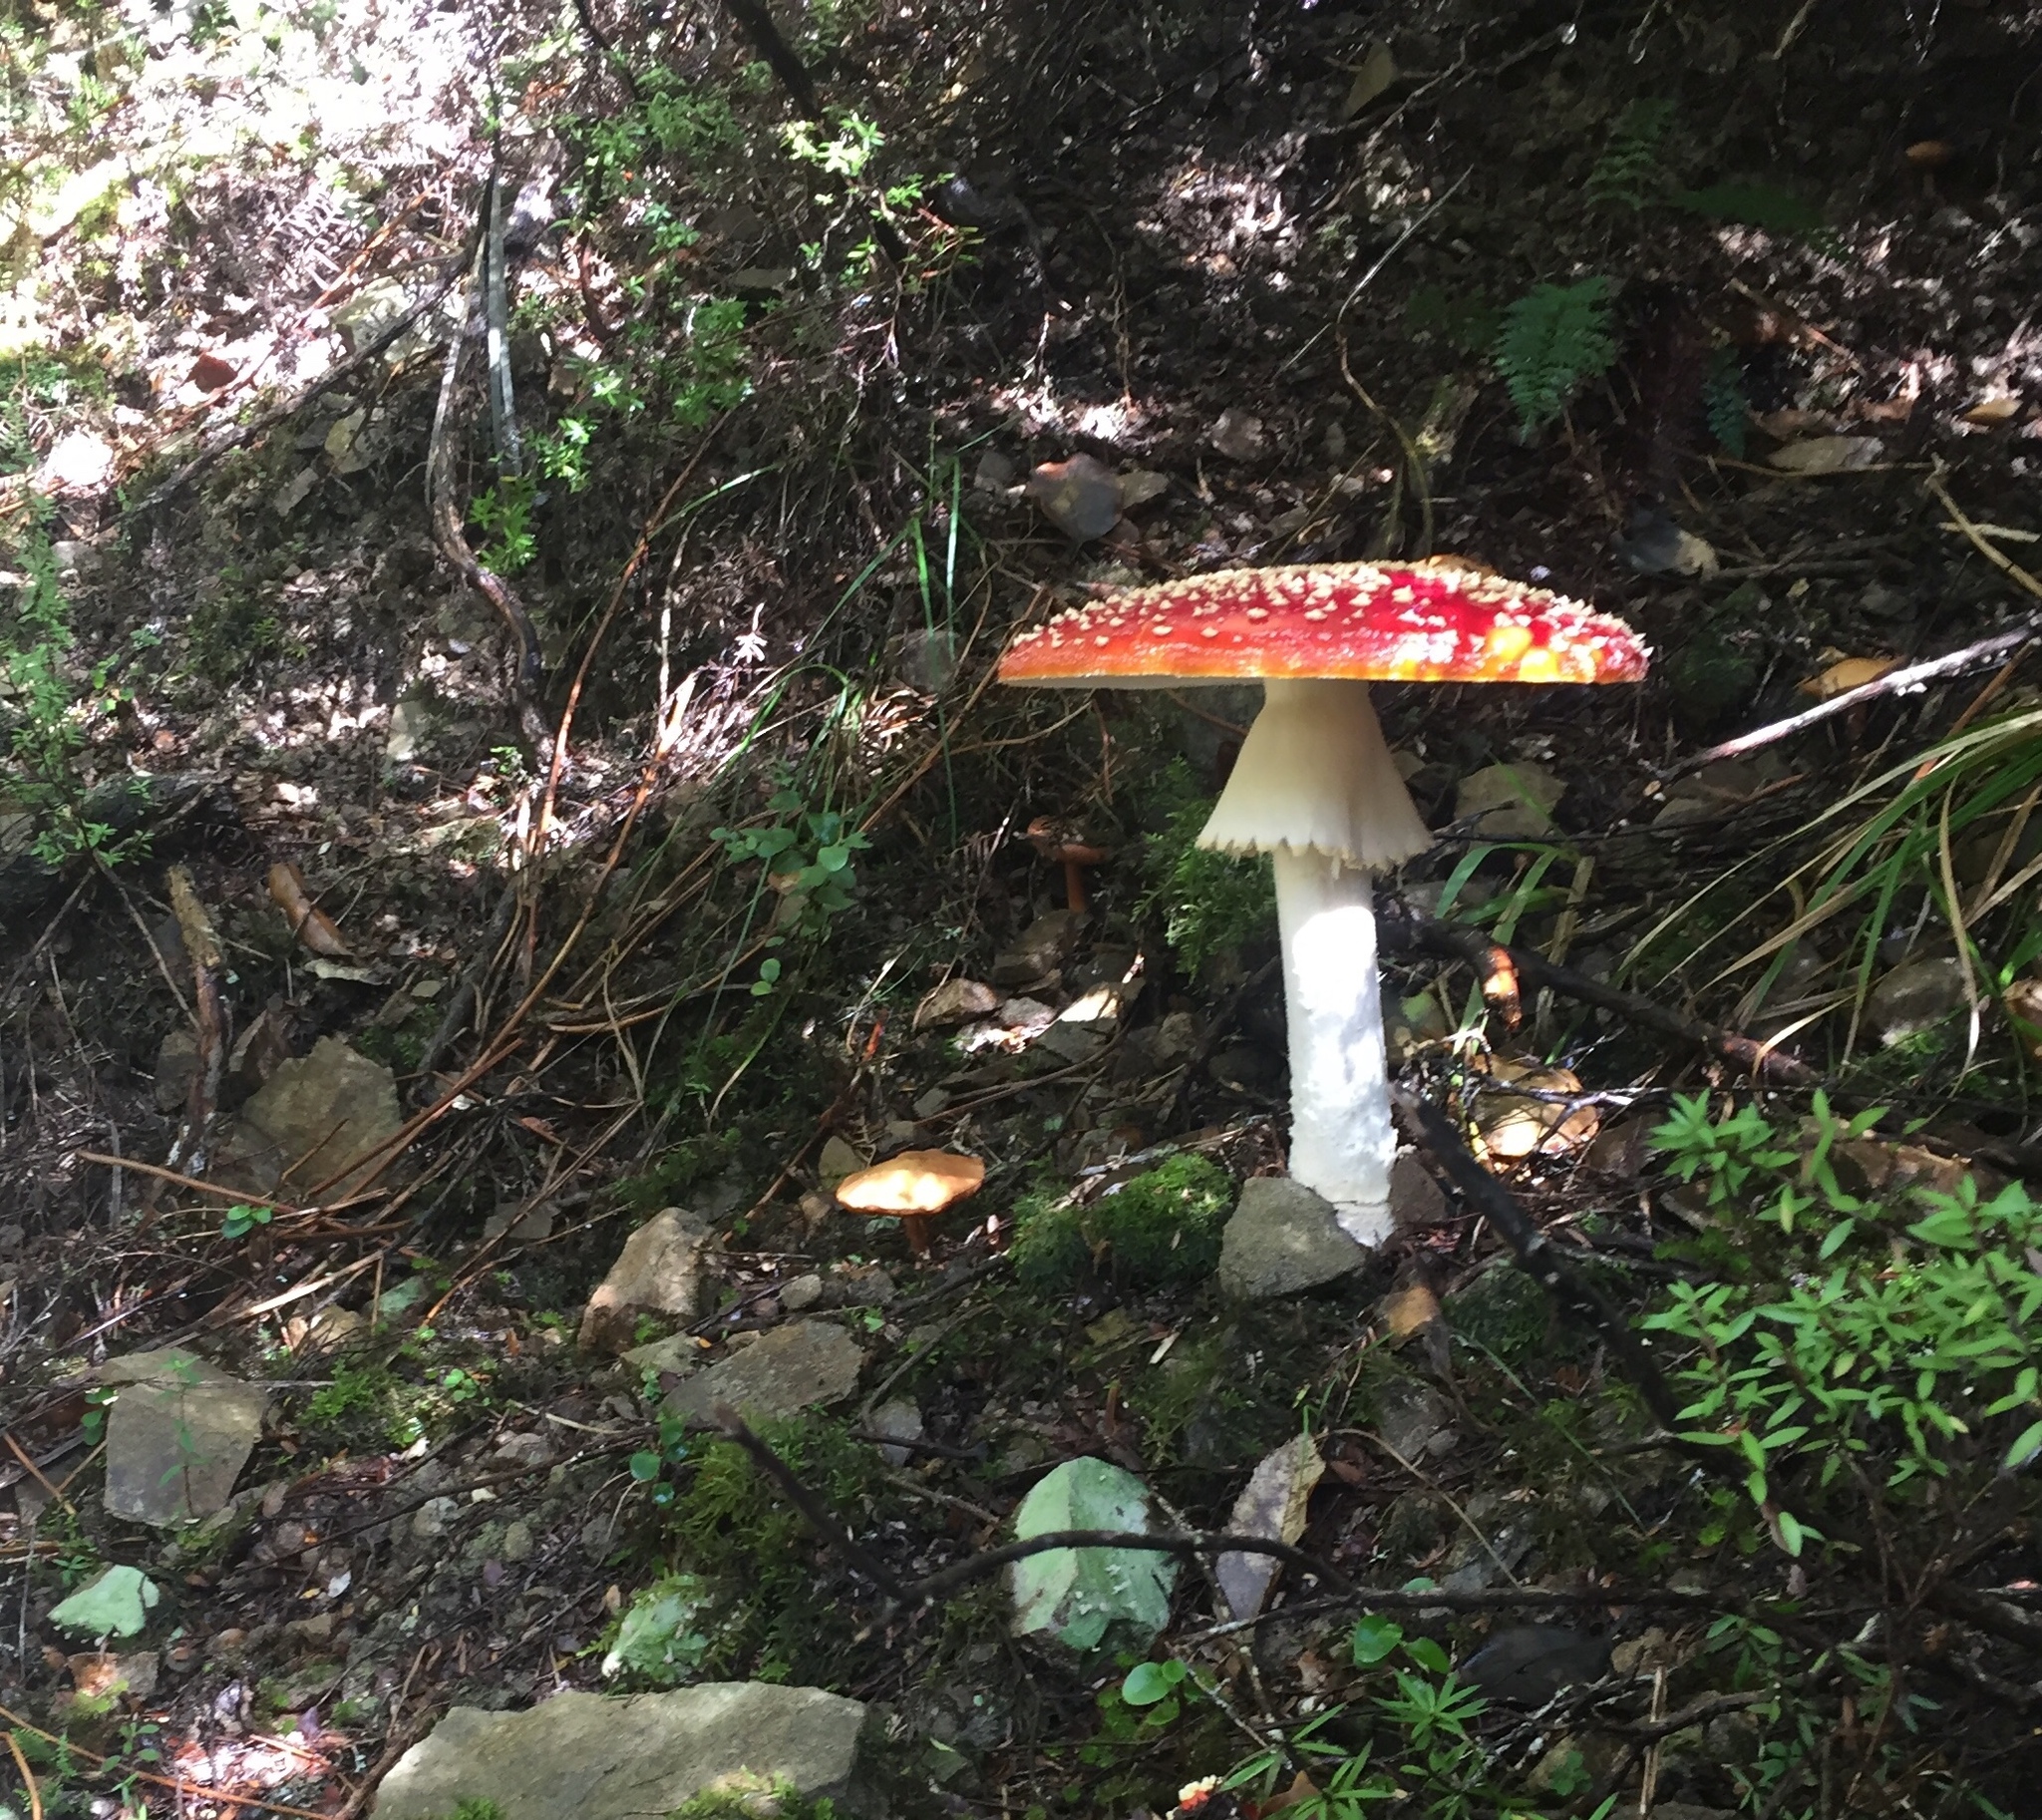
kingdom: Fungi
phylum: Basidiomycota
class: Agaricomycetes
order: Agaricales
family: Amanitaceae
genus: Amanita
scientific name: Amanita muscaria
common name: Fly agaric
